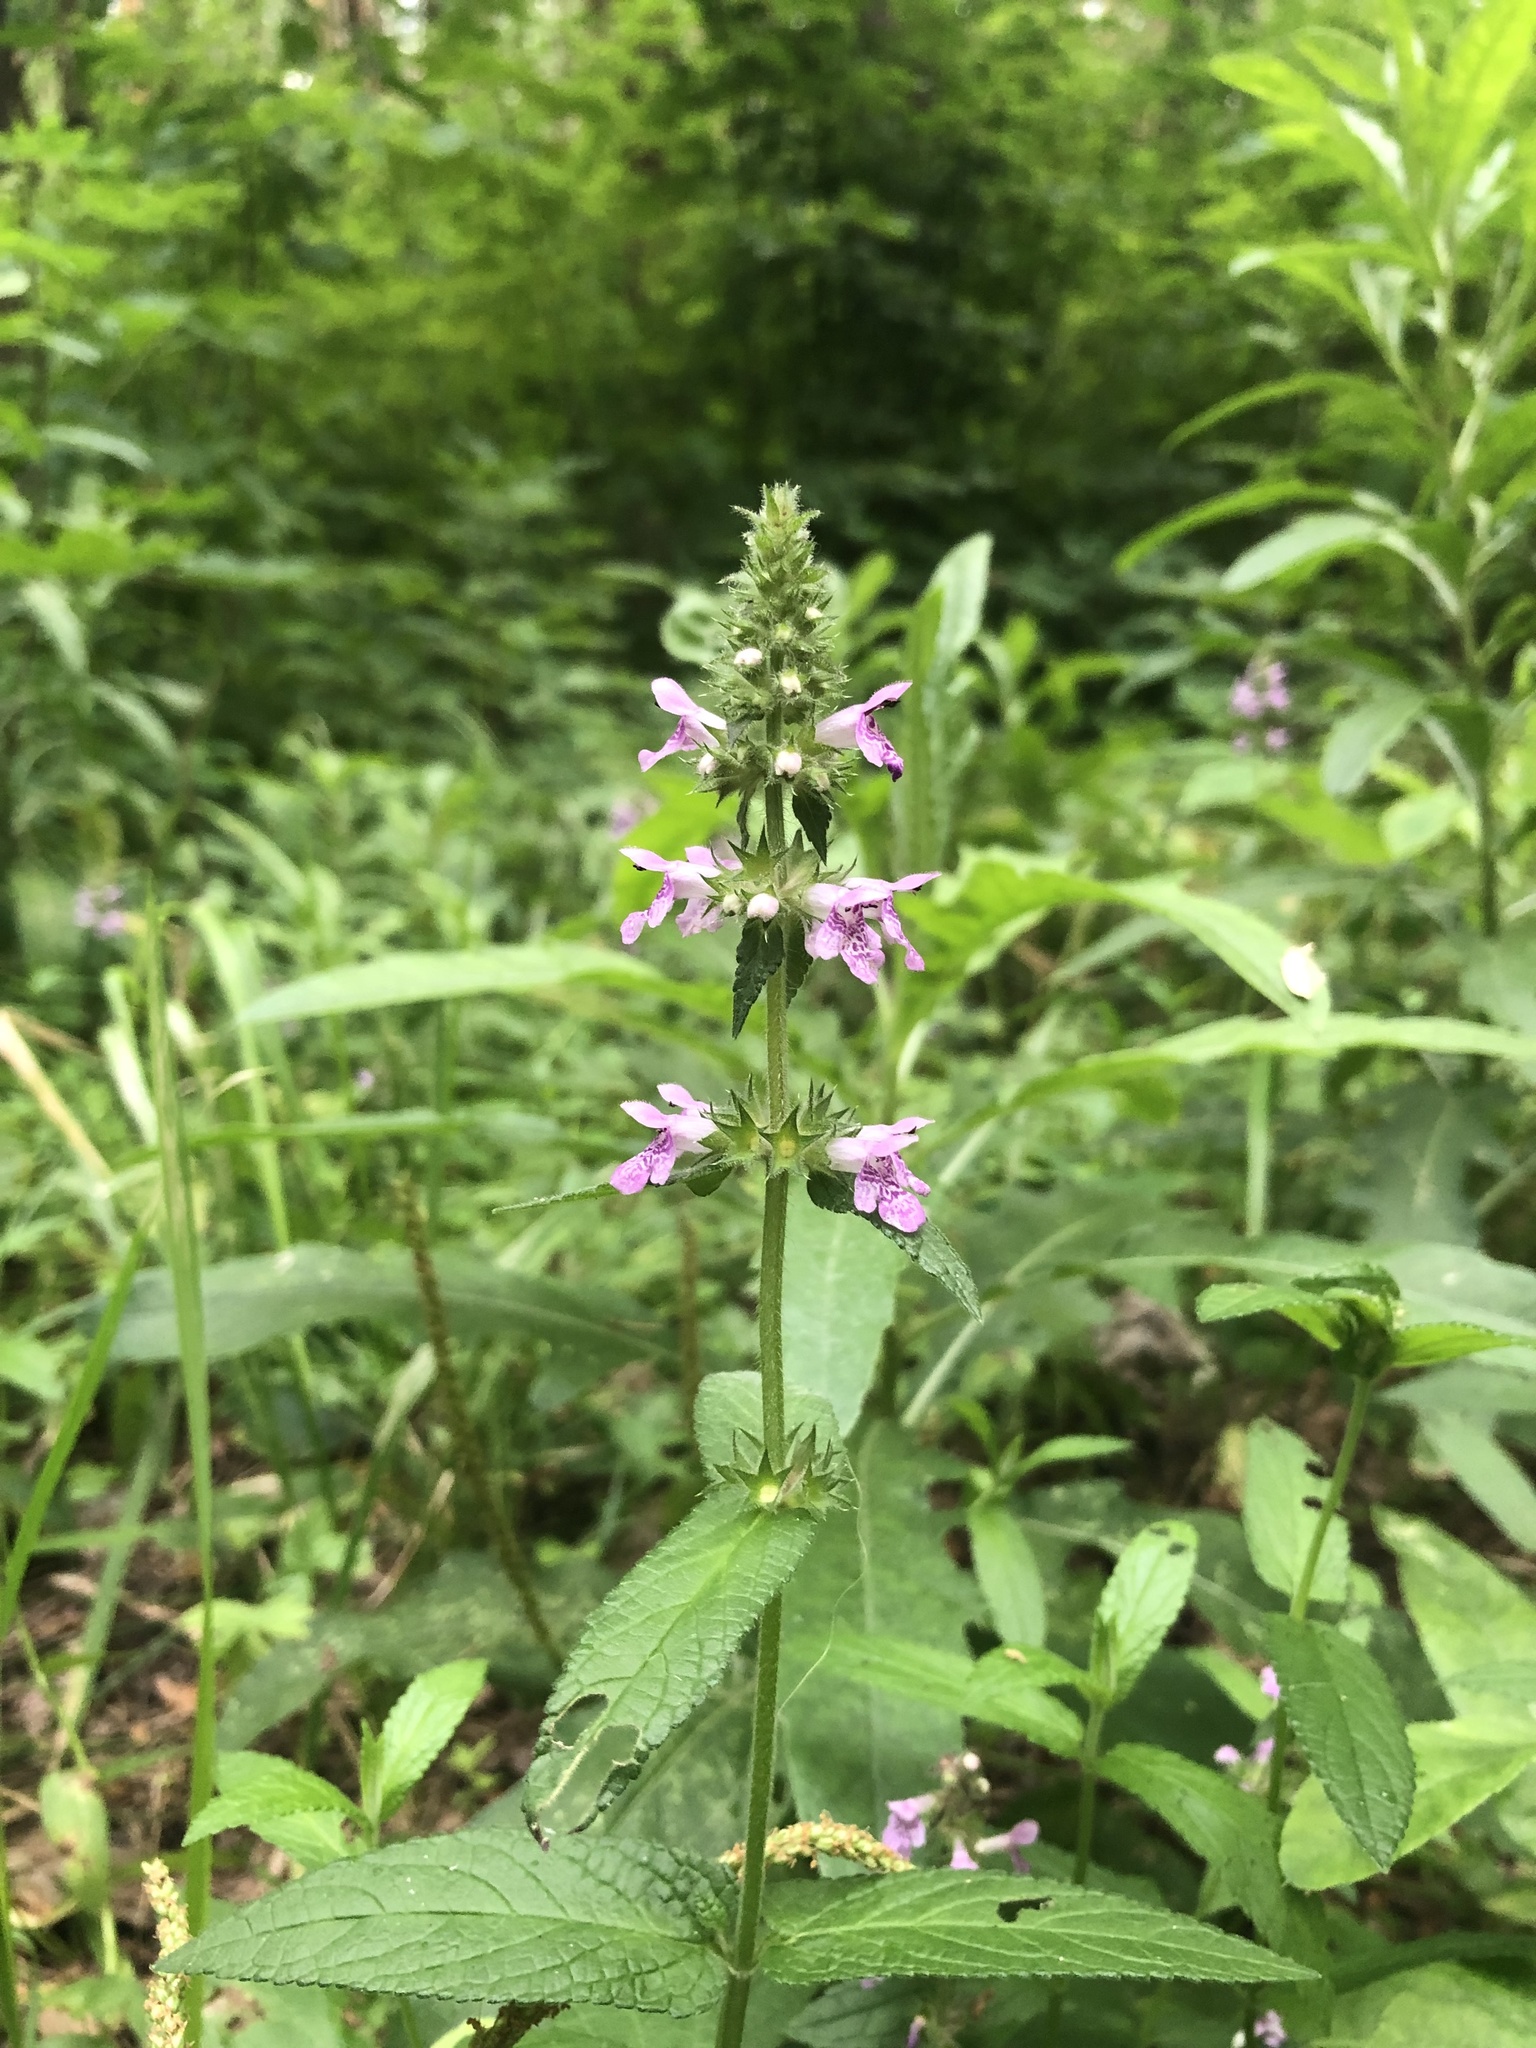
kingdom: Plantae
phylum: Tracheophyta
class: Magnoliopsida
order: Lamiales
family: Lamiaceae
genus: Stachys
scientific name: Stachys palustris
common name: Marsh woundwort
